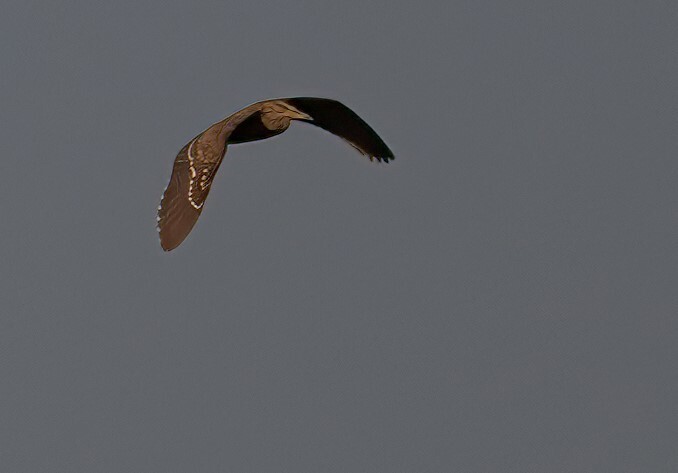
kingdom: Animalia
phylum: Chordata
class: Aves
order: Pelecaniformes
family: Ardeidae
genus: Nycticorax
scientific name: Nycticorax nycticorax
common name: Black-crowned night heron
